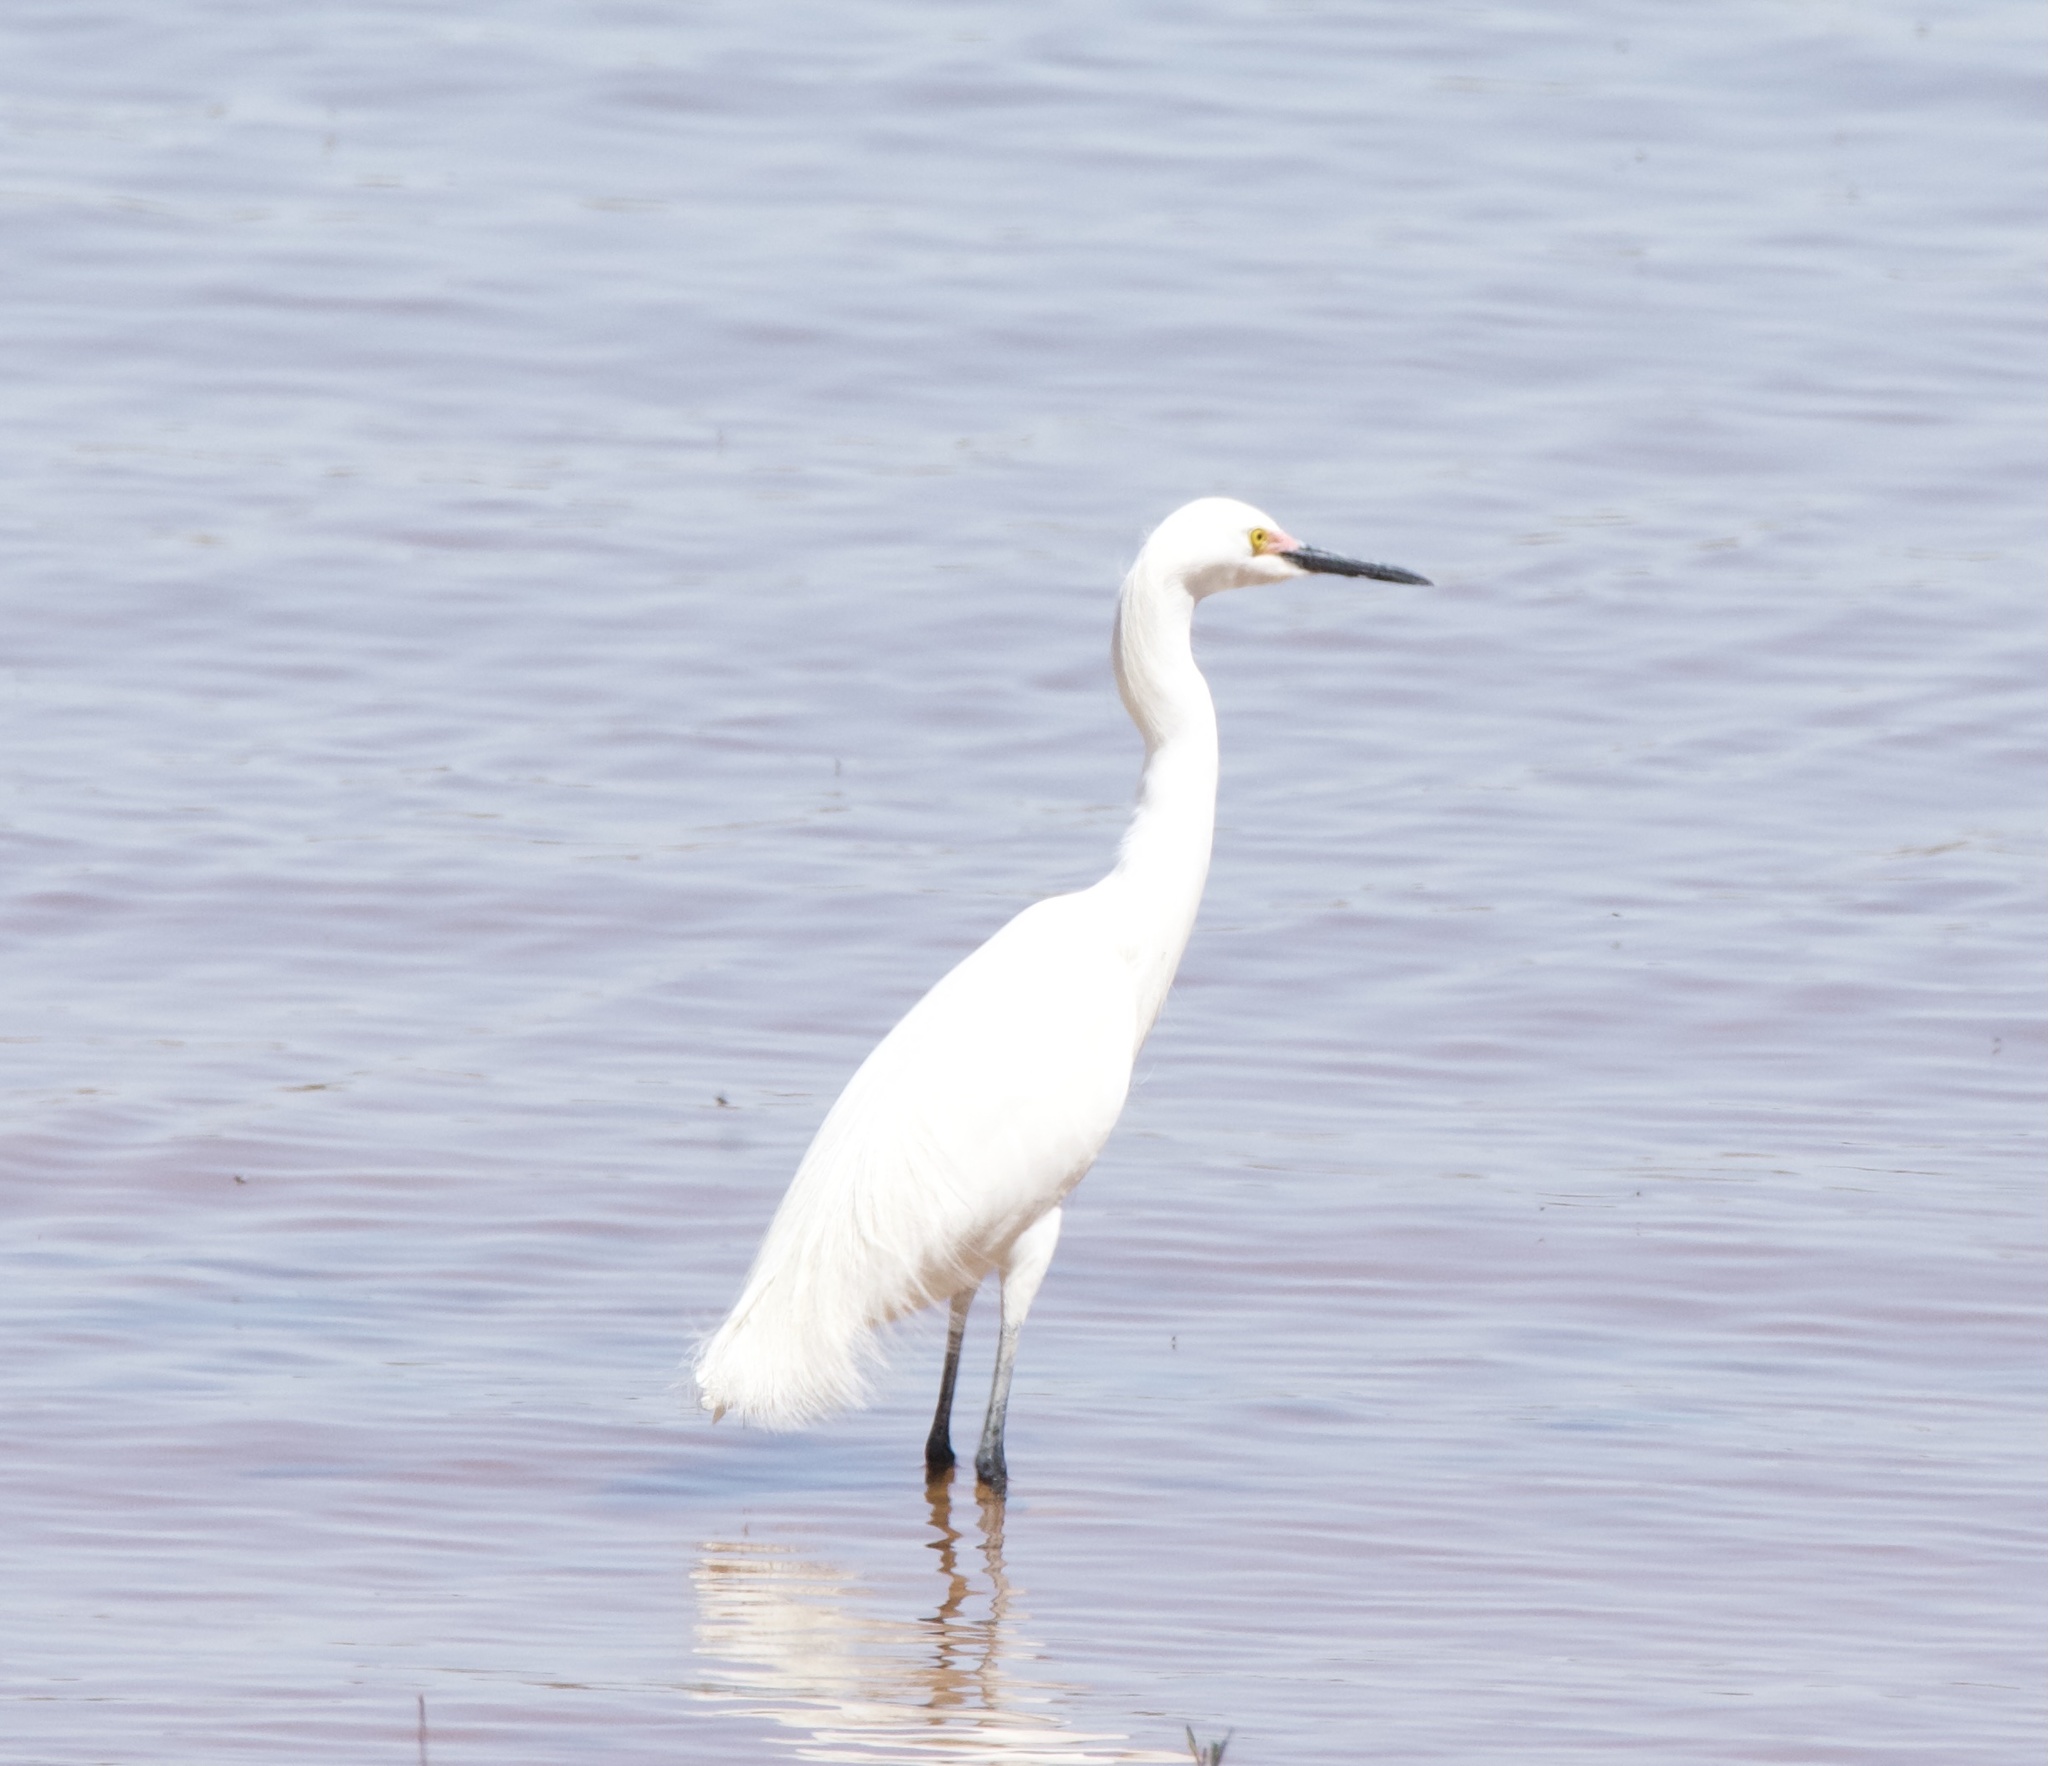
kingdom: Animalia
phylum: Chordata
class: Aves
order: Pelecaniformes
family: Ardeidae
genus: Egretta
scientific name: Egretta thula
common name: Snowy egret
